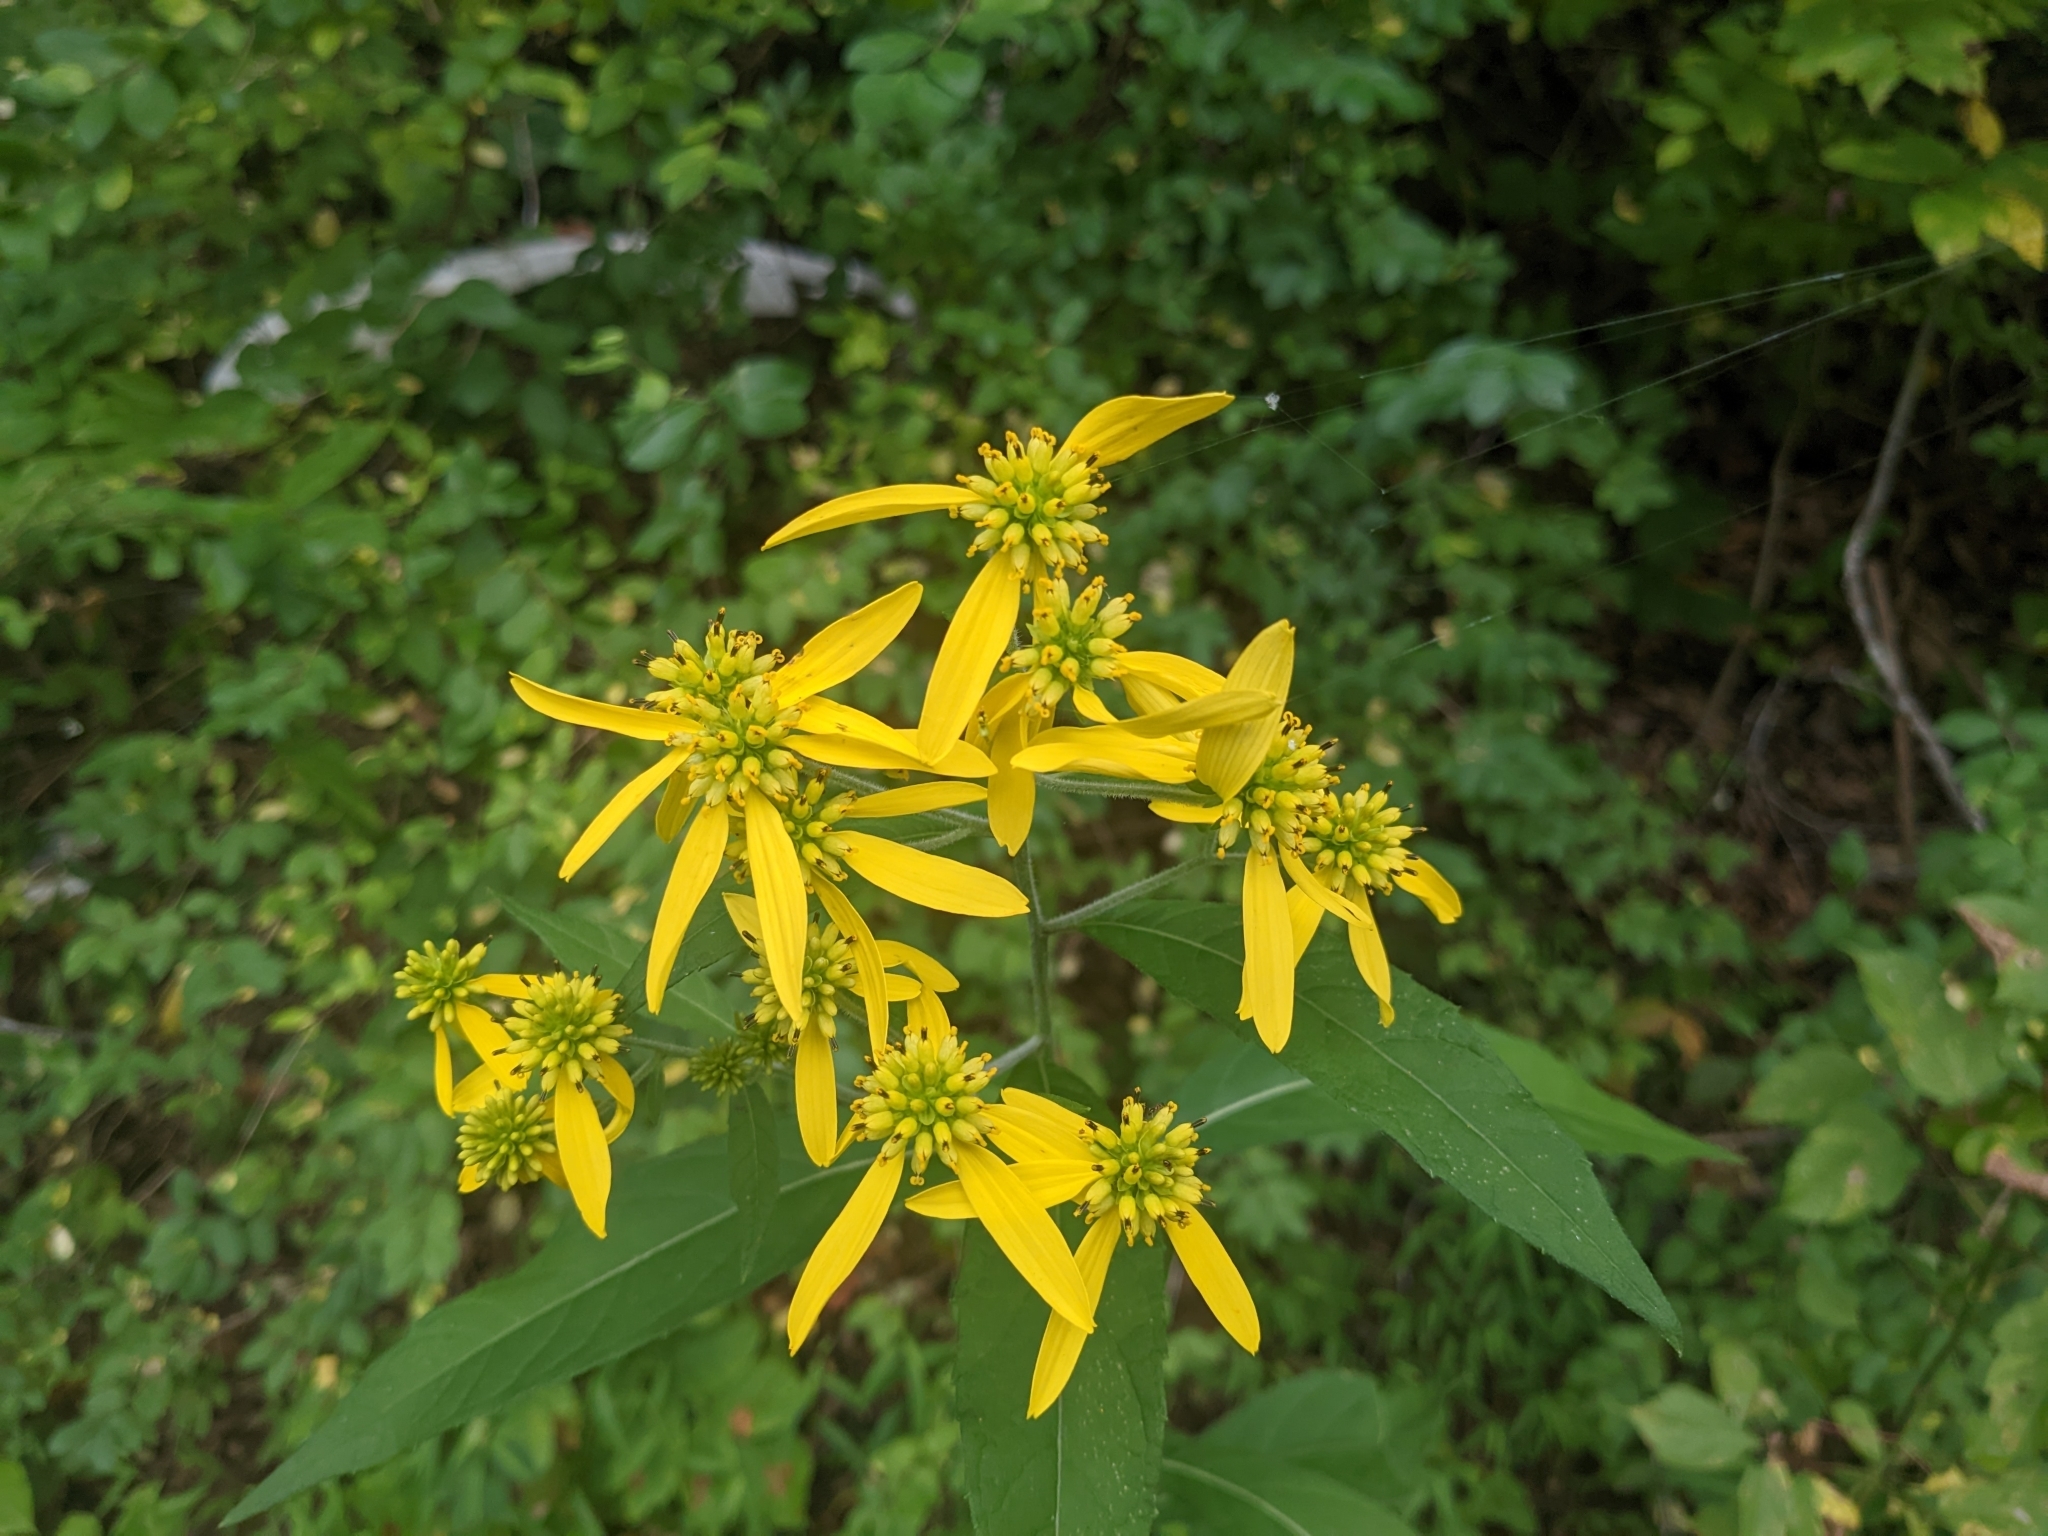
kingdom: Plantae
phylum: Tracheophyta
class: Magnoliopsida
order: Asterales
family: Asteraceae
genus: Verbesina
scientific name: Verbesina alternifolia
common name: Wingstem
